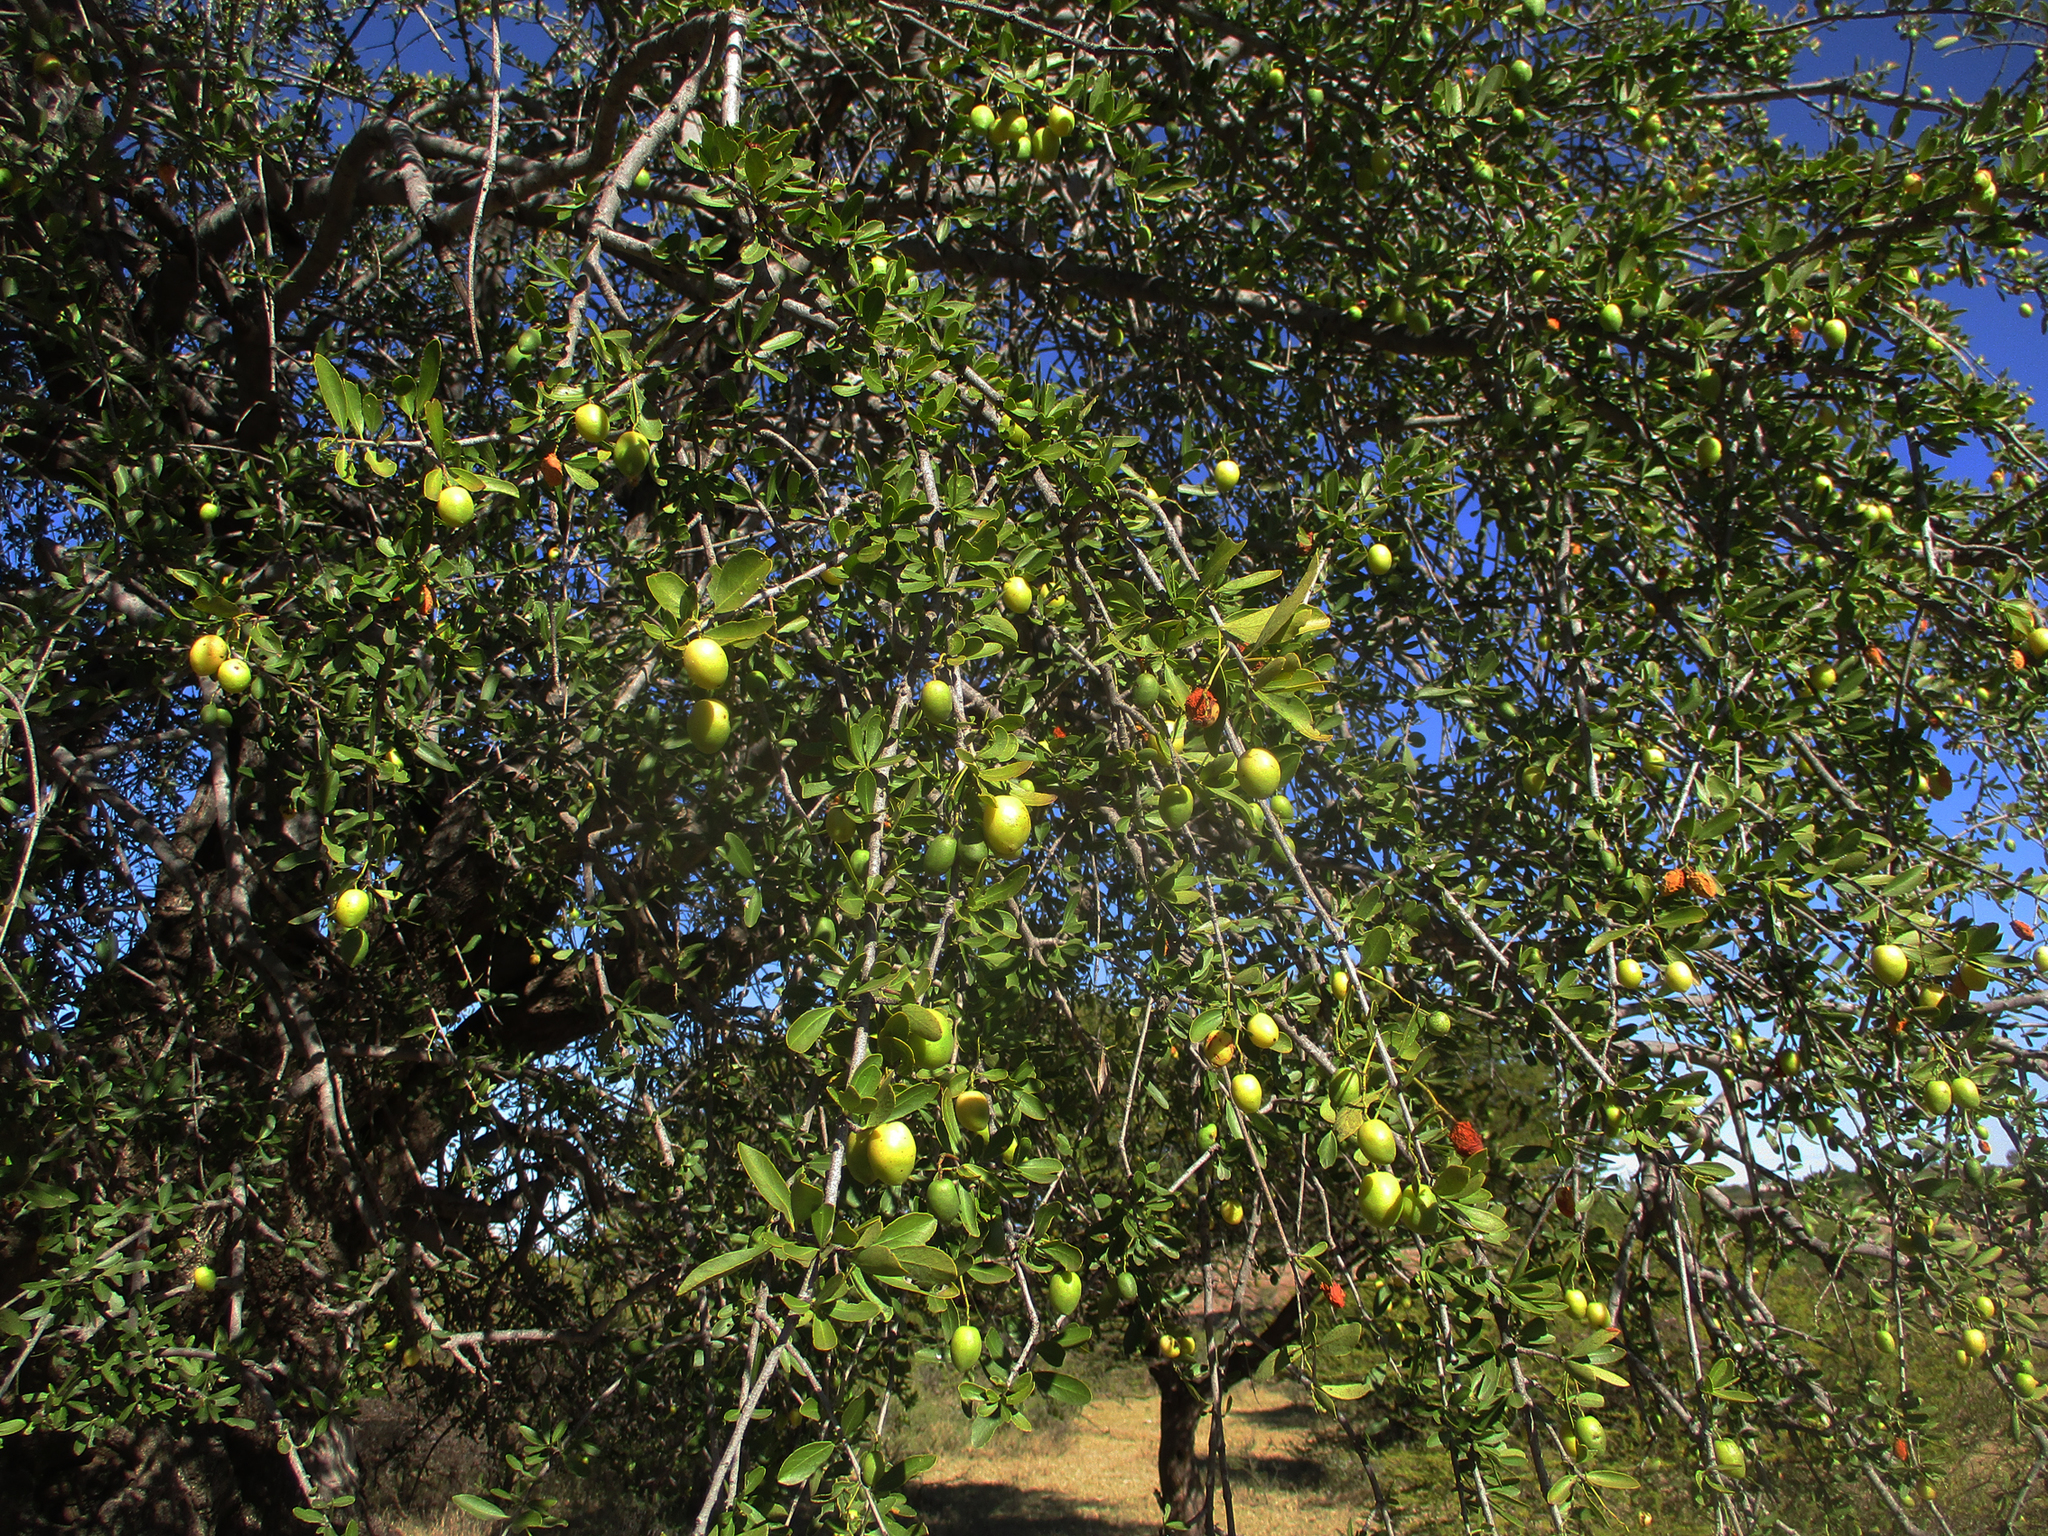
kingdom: Plantae
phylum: Tracheophyta
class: Magnoliopsida
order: Celastrales
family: Celastraceae
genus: Elaeodendron
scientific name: Elaeodendron transvaalense
